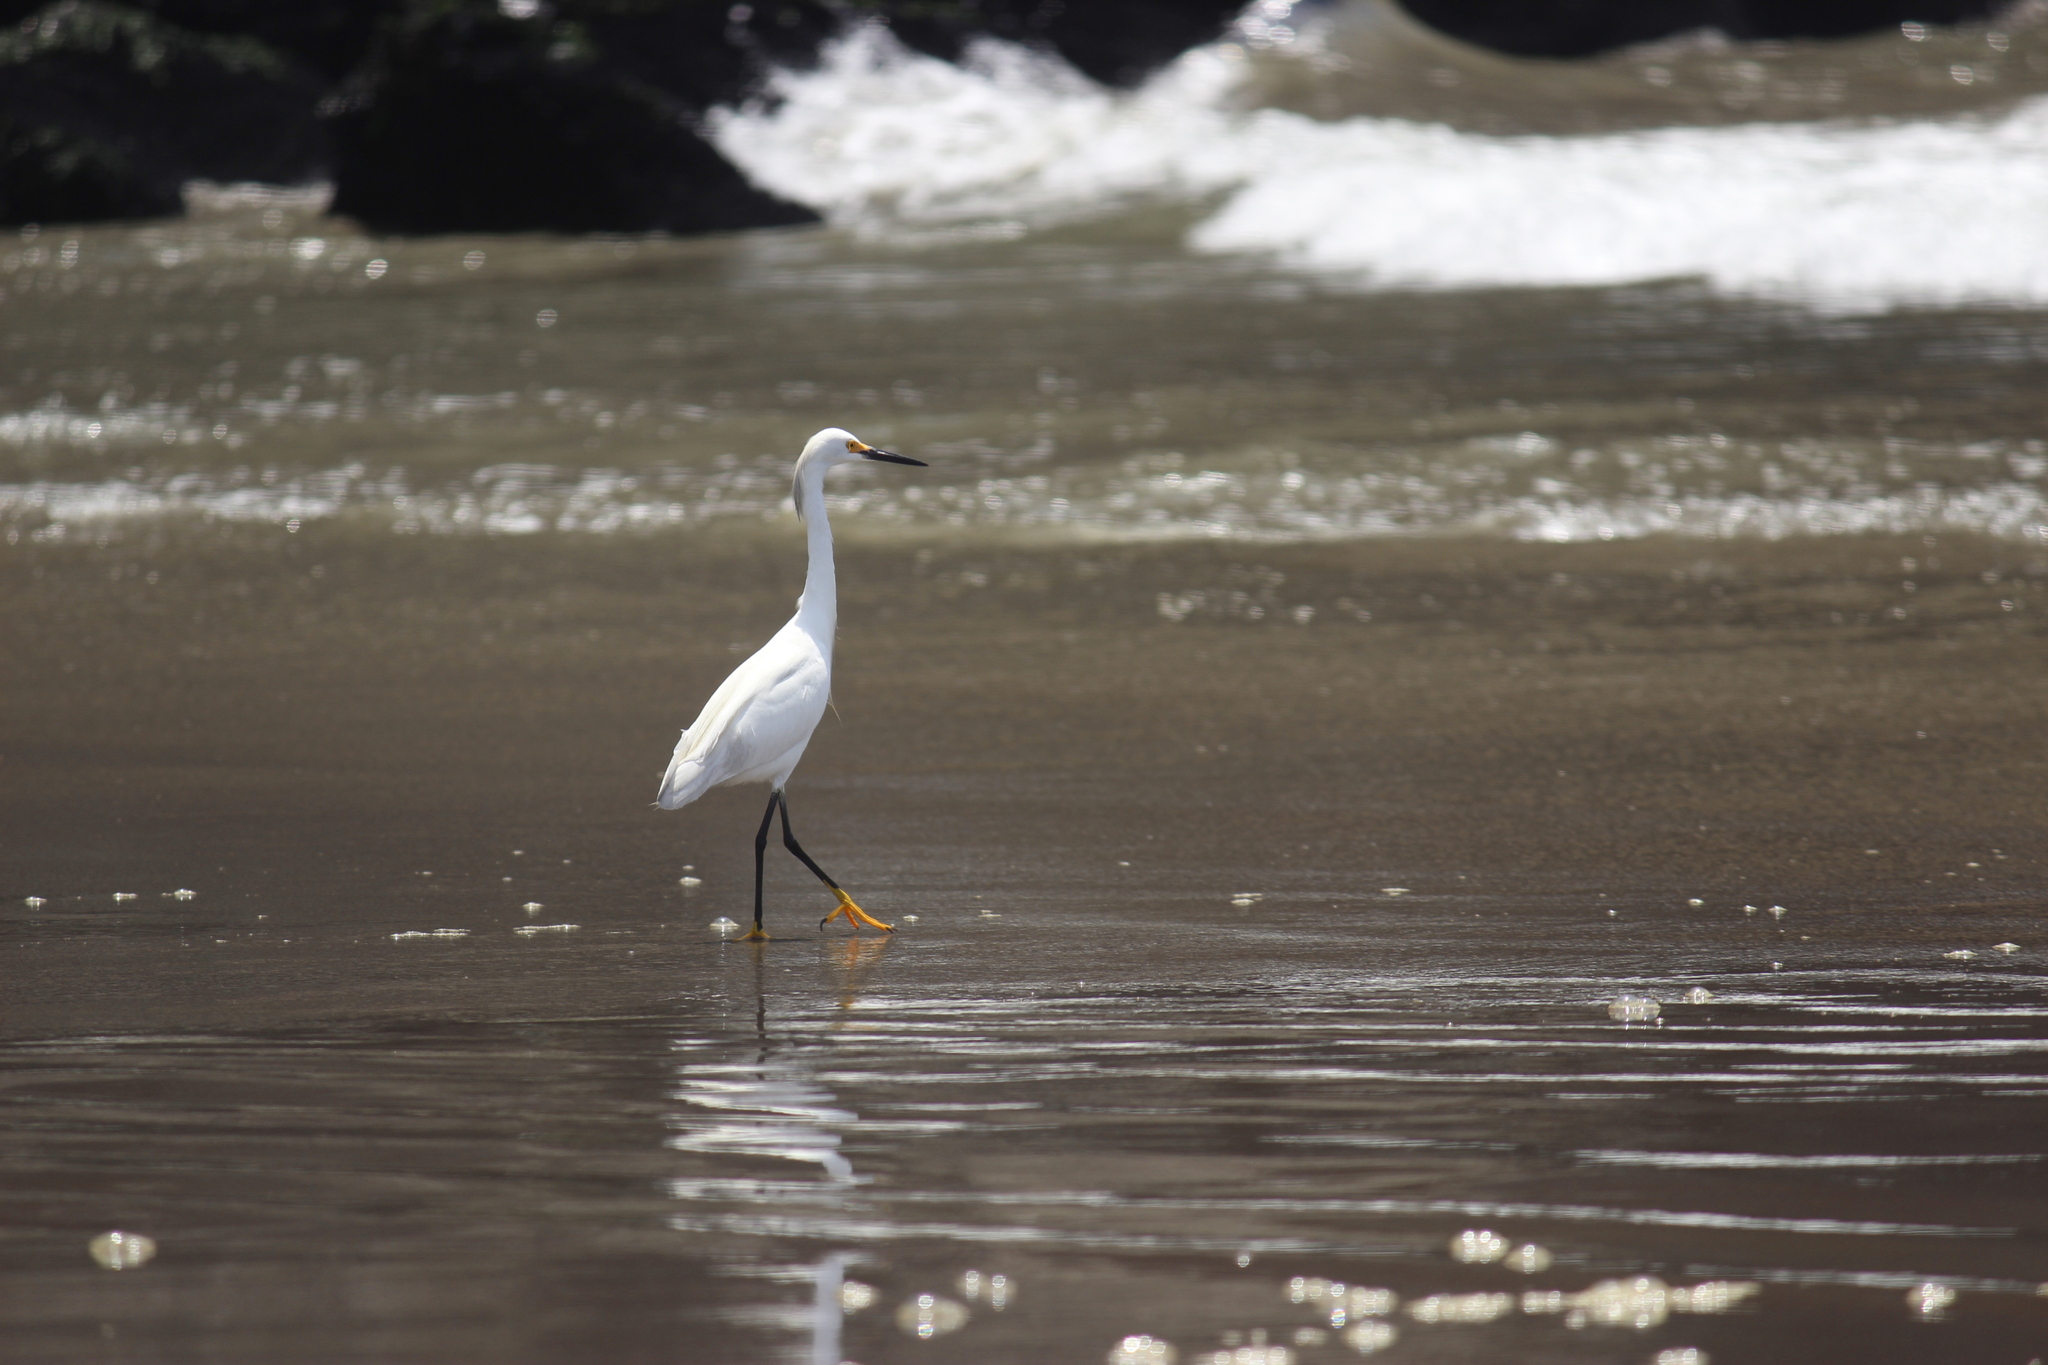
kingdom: Animalia
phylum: Chordata
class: Aves
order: Pelecaniformes
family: Ardeidae
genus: Egretta
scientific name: Egretta thula
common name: Snowy egret
